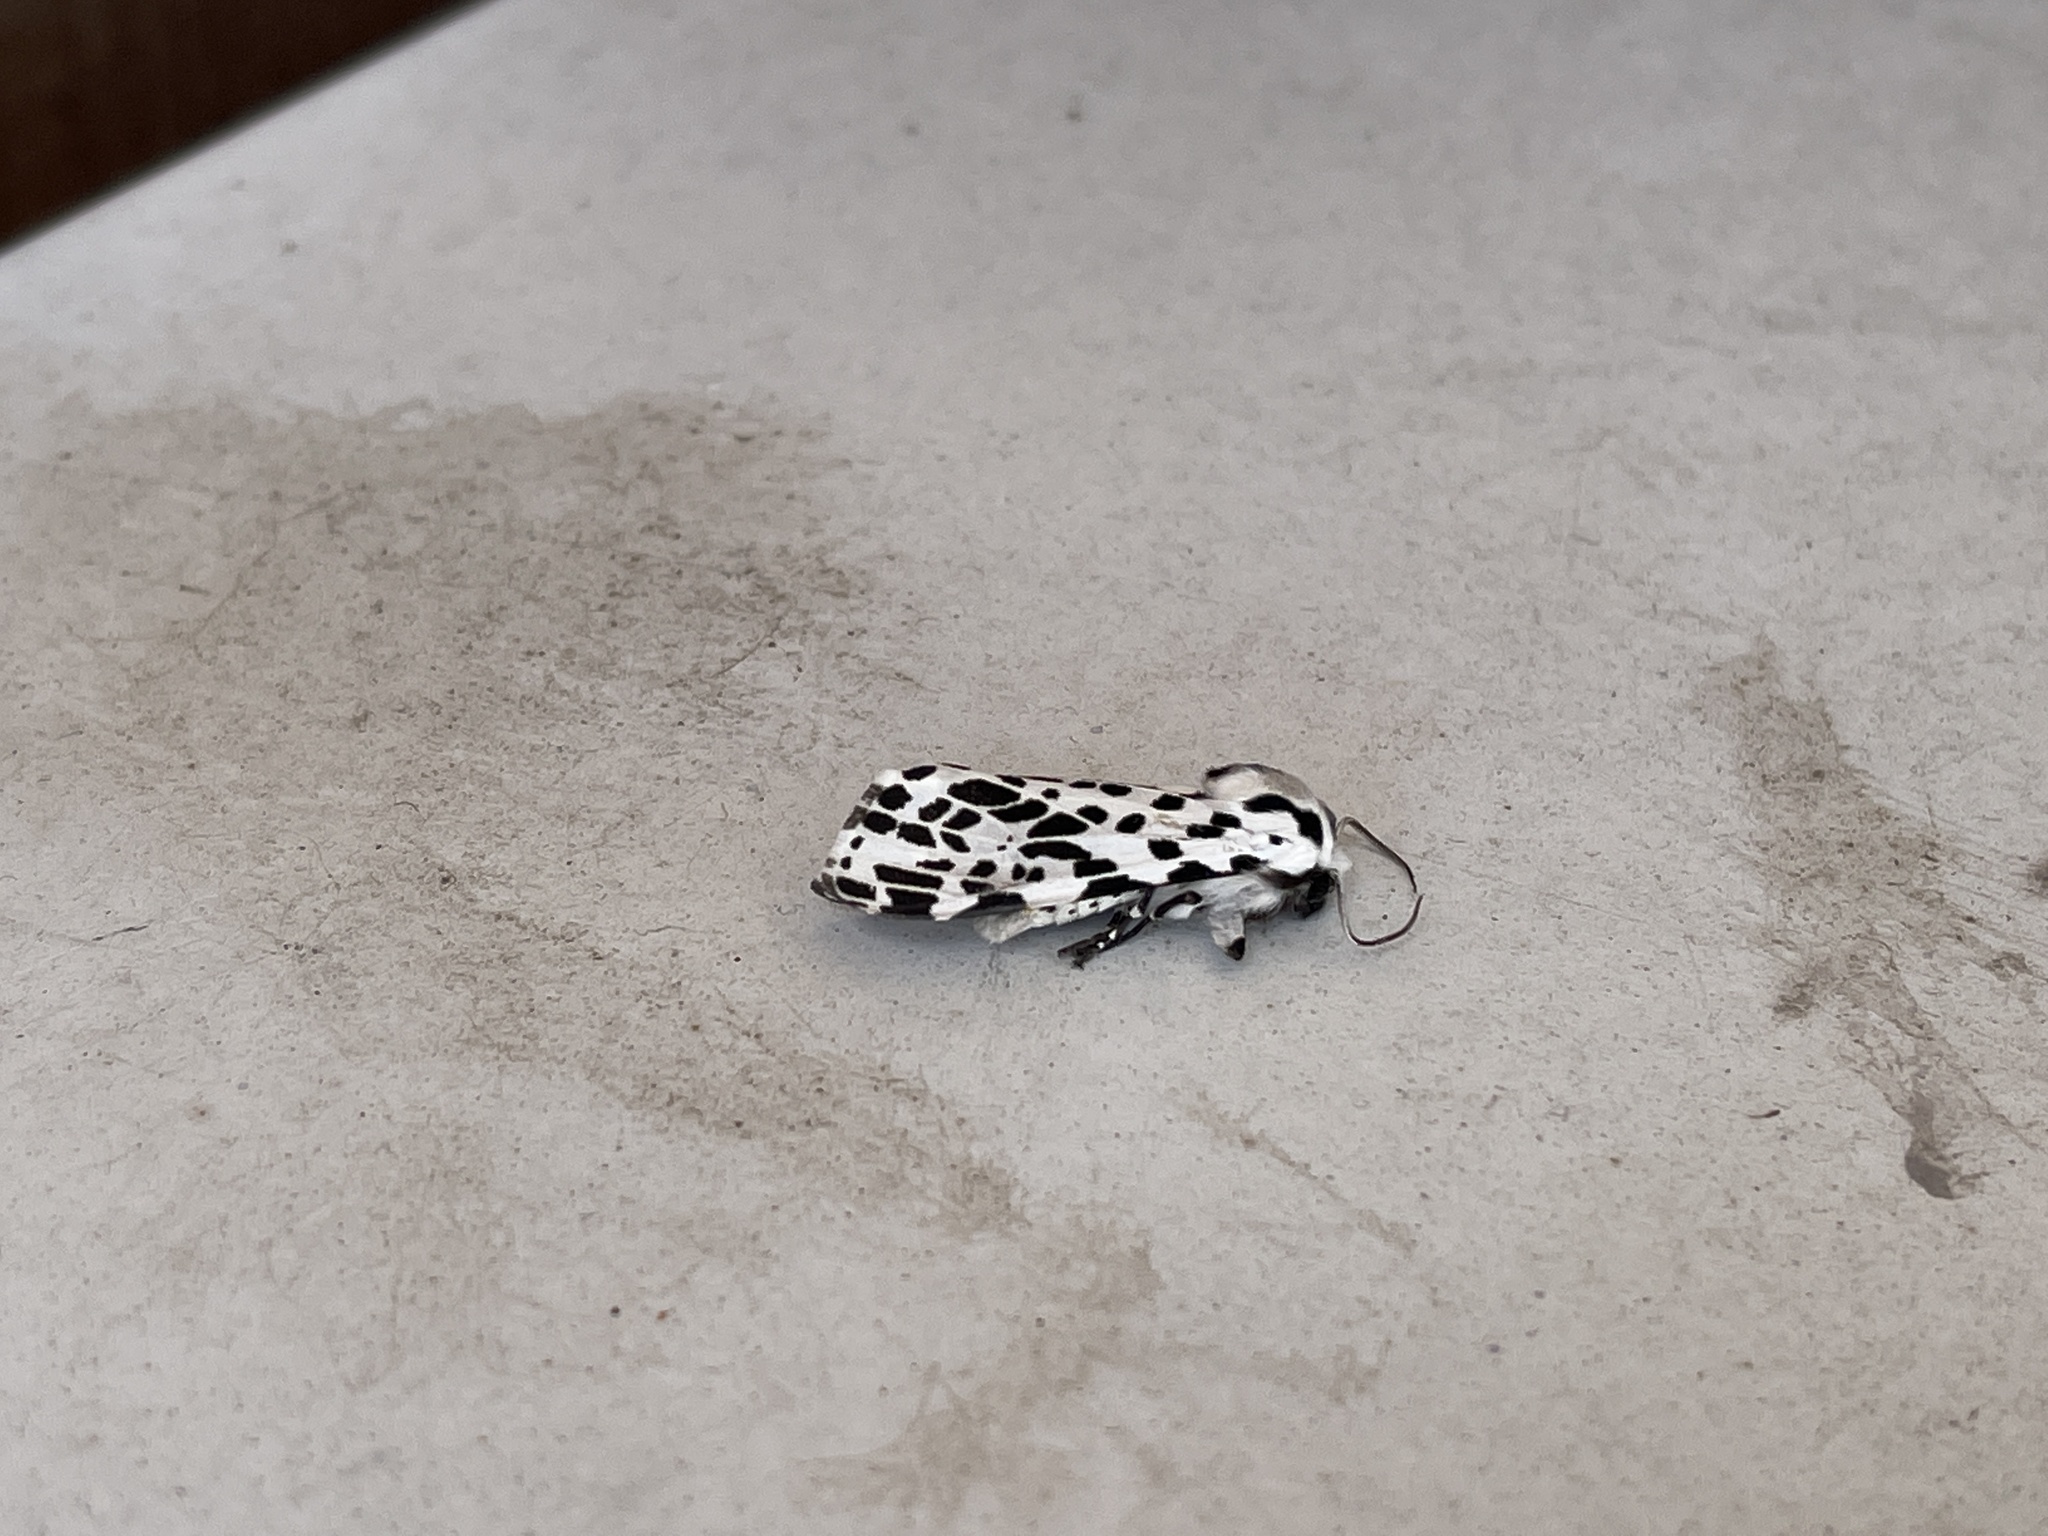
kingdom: Animalia
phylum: Arthropoda
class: Insecta
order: Lepidoptera
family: Erebidae
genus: Hypercompe
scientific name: Hypercompe permaculata
